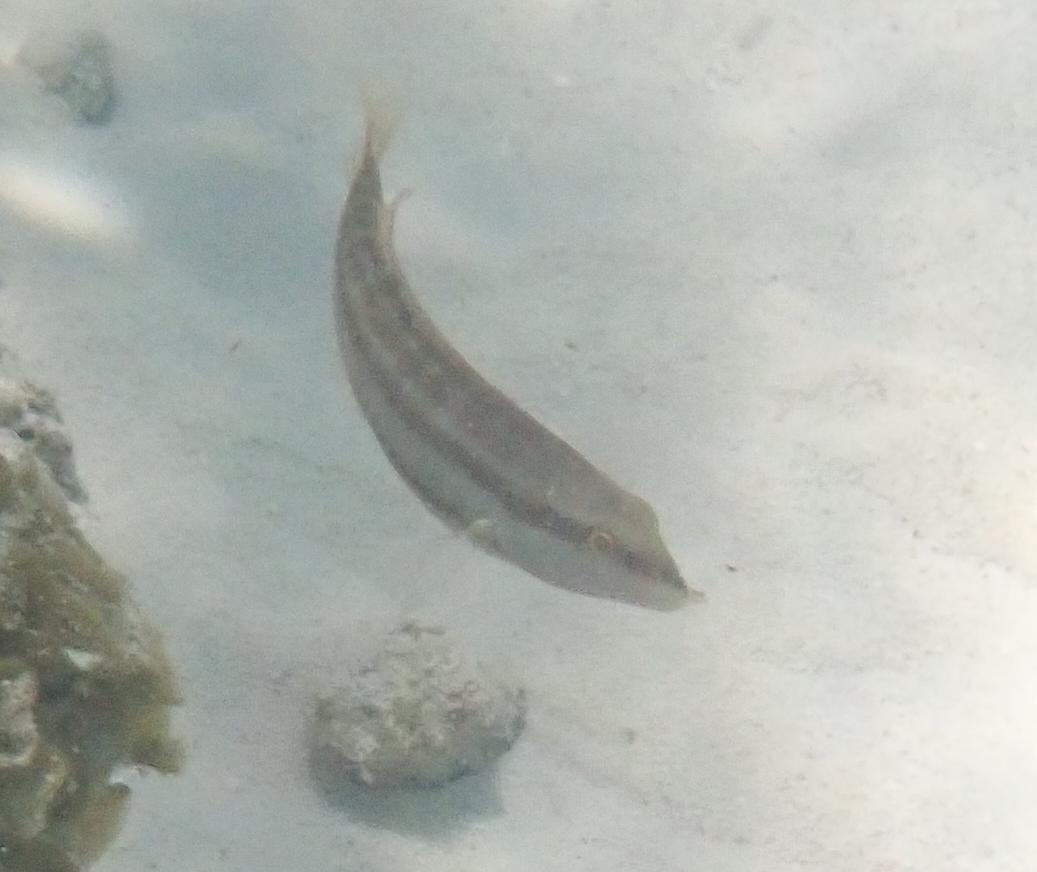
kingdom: Animalia
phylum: Chordata
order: Perciformes
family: Labridae
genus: Halichoeres
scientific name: Halichoeres bivittatus
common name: Slippery dick
